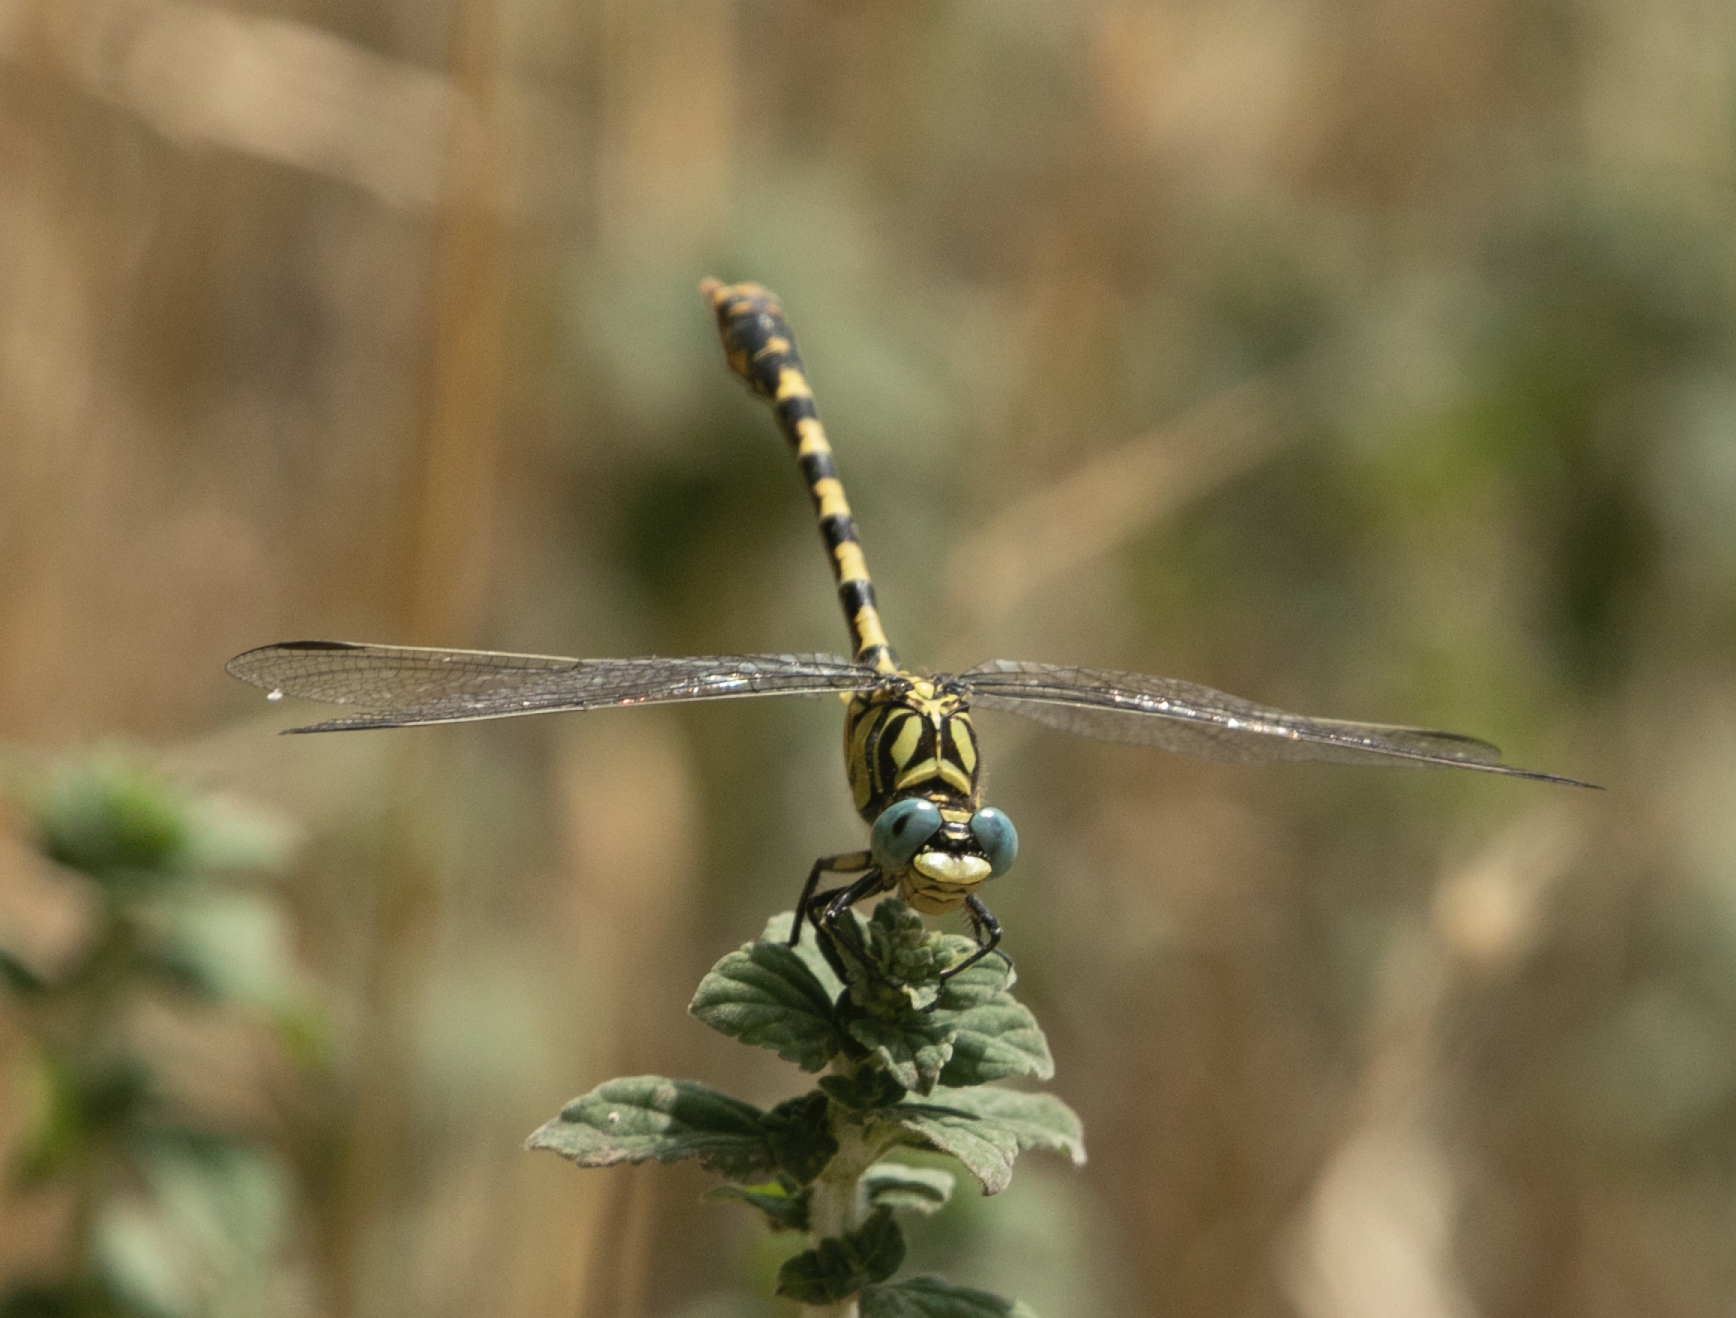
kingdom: Animalia
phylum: Arthropoda
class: Insecta
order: Odonata
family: Gomphidae
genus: Onychogomphus
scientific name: Onychogomphus forcipatus
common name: Small pincertail
